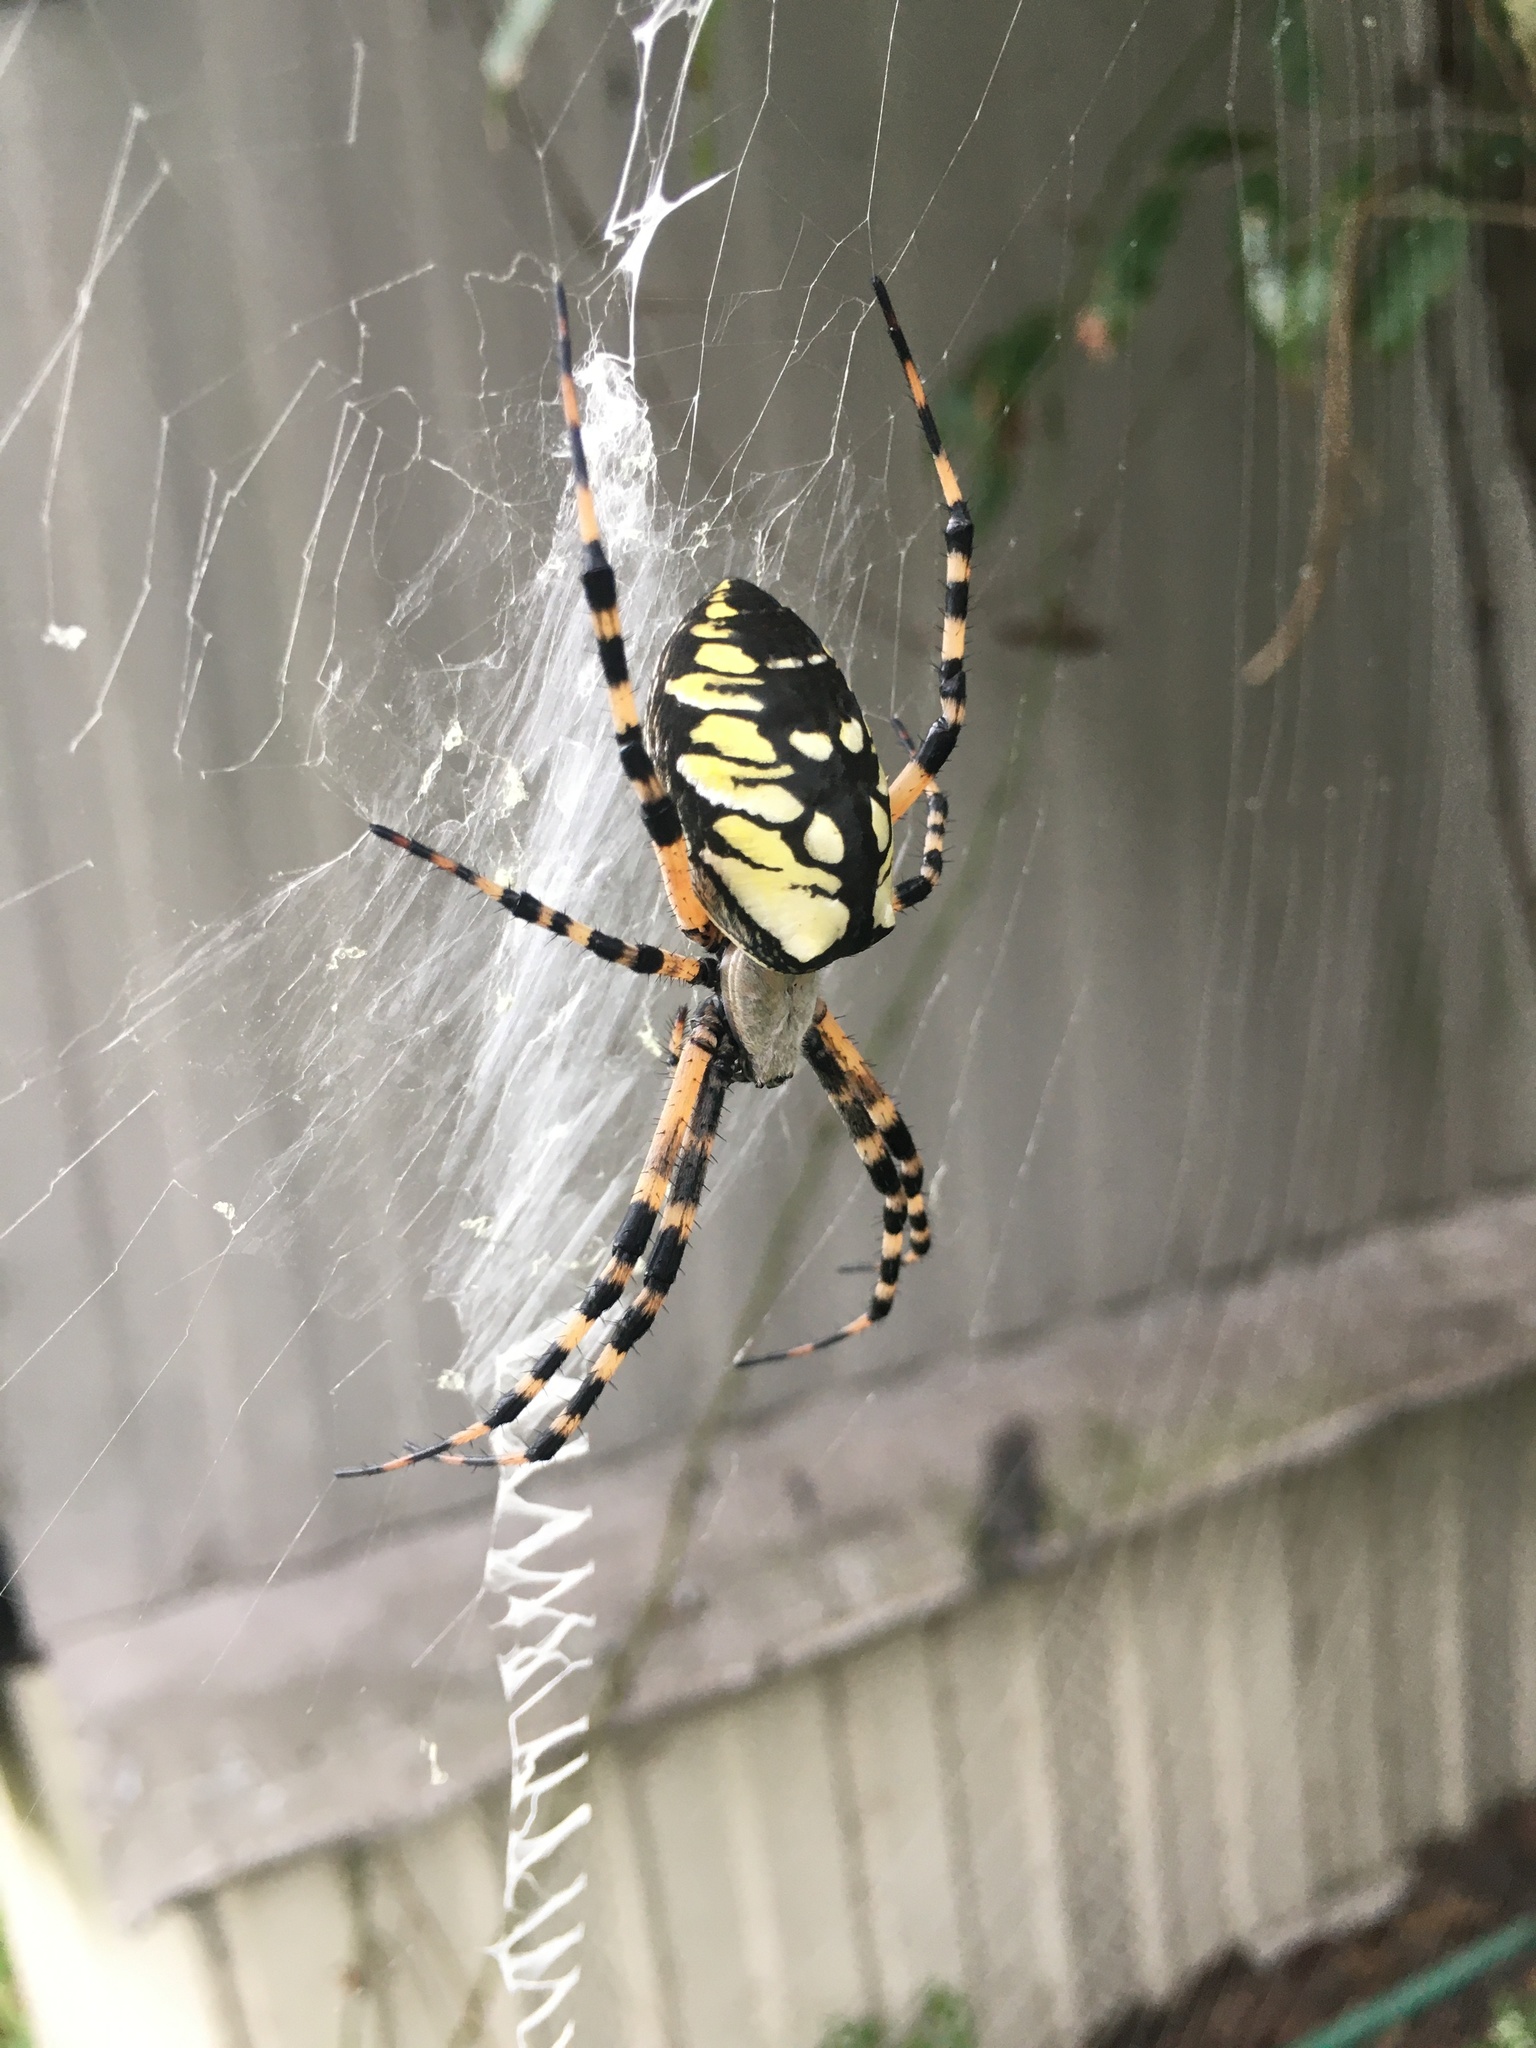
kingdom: Animalia
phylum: Arthropoda
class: Arachnida
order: Araneae
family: Araneidae
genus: Argiope
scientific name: Argiope aurantia
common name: Orb weavers
